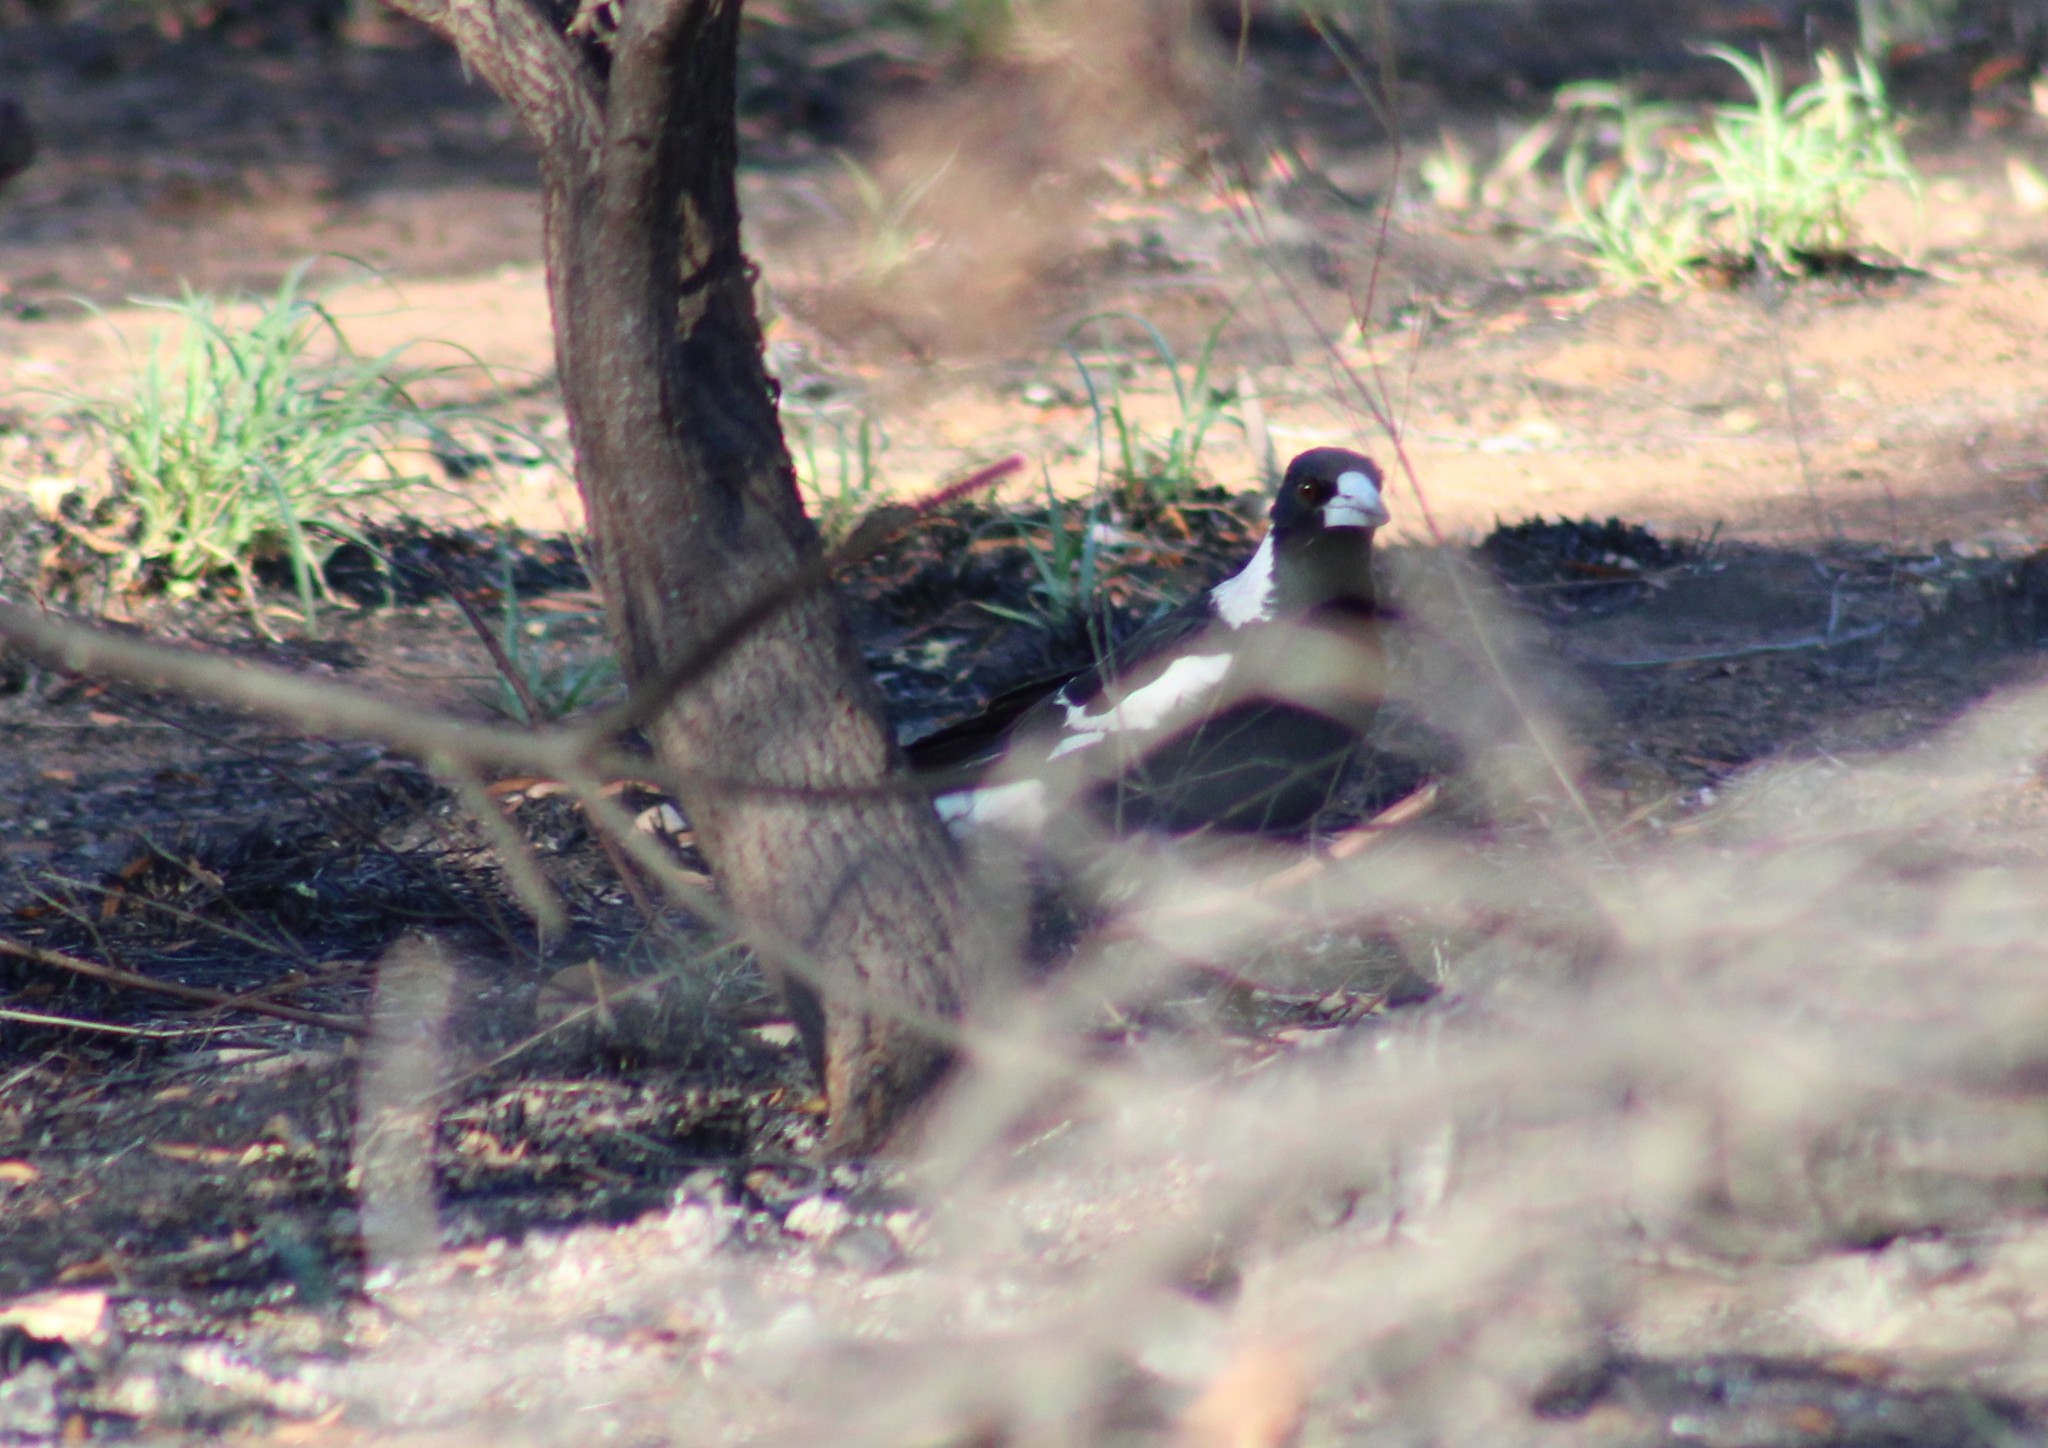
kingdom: Animalia
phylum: Chordata
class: Aves
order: Passeriformes
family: Cracticidae
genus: Gymnorhina
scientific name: Gymnorhina tibicen
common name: Australian magpie
